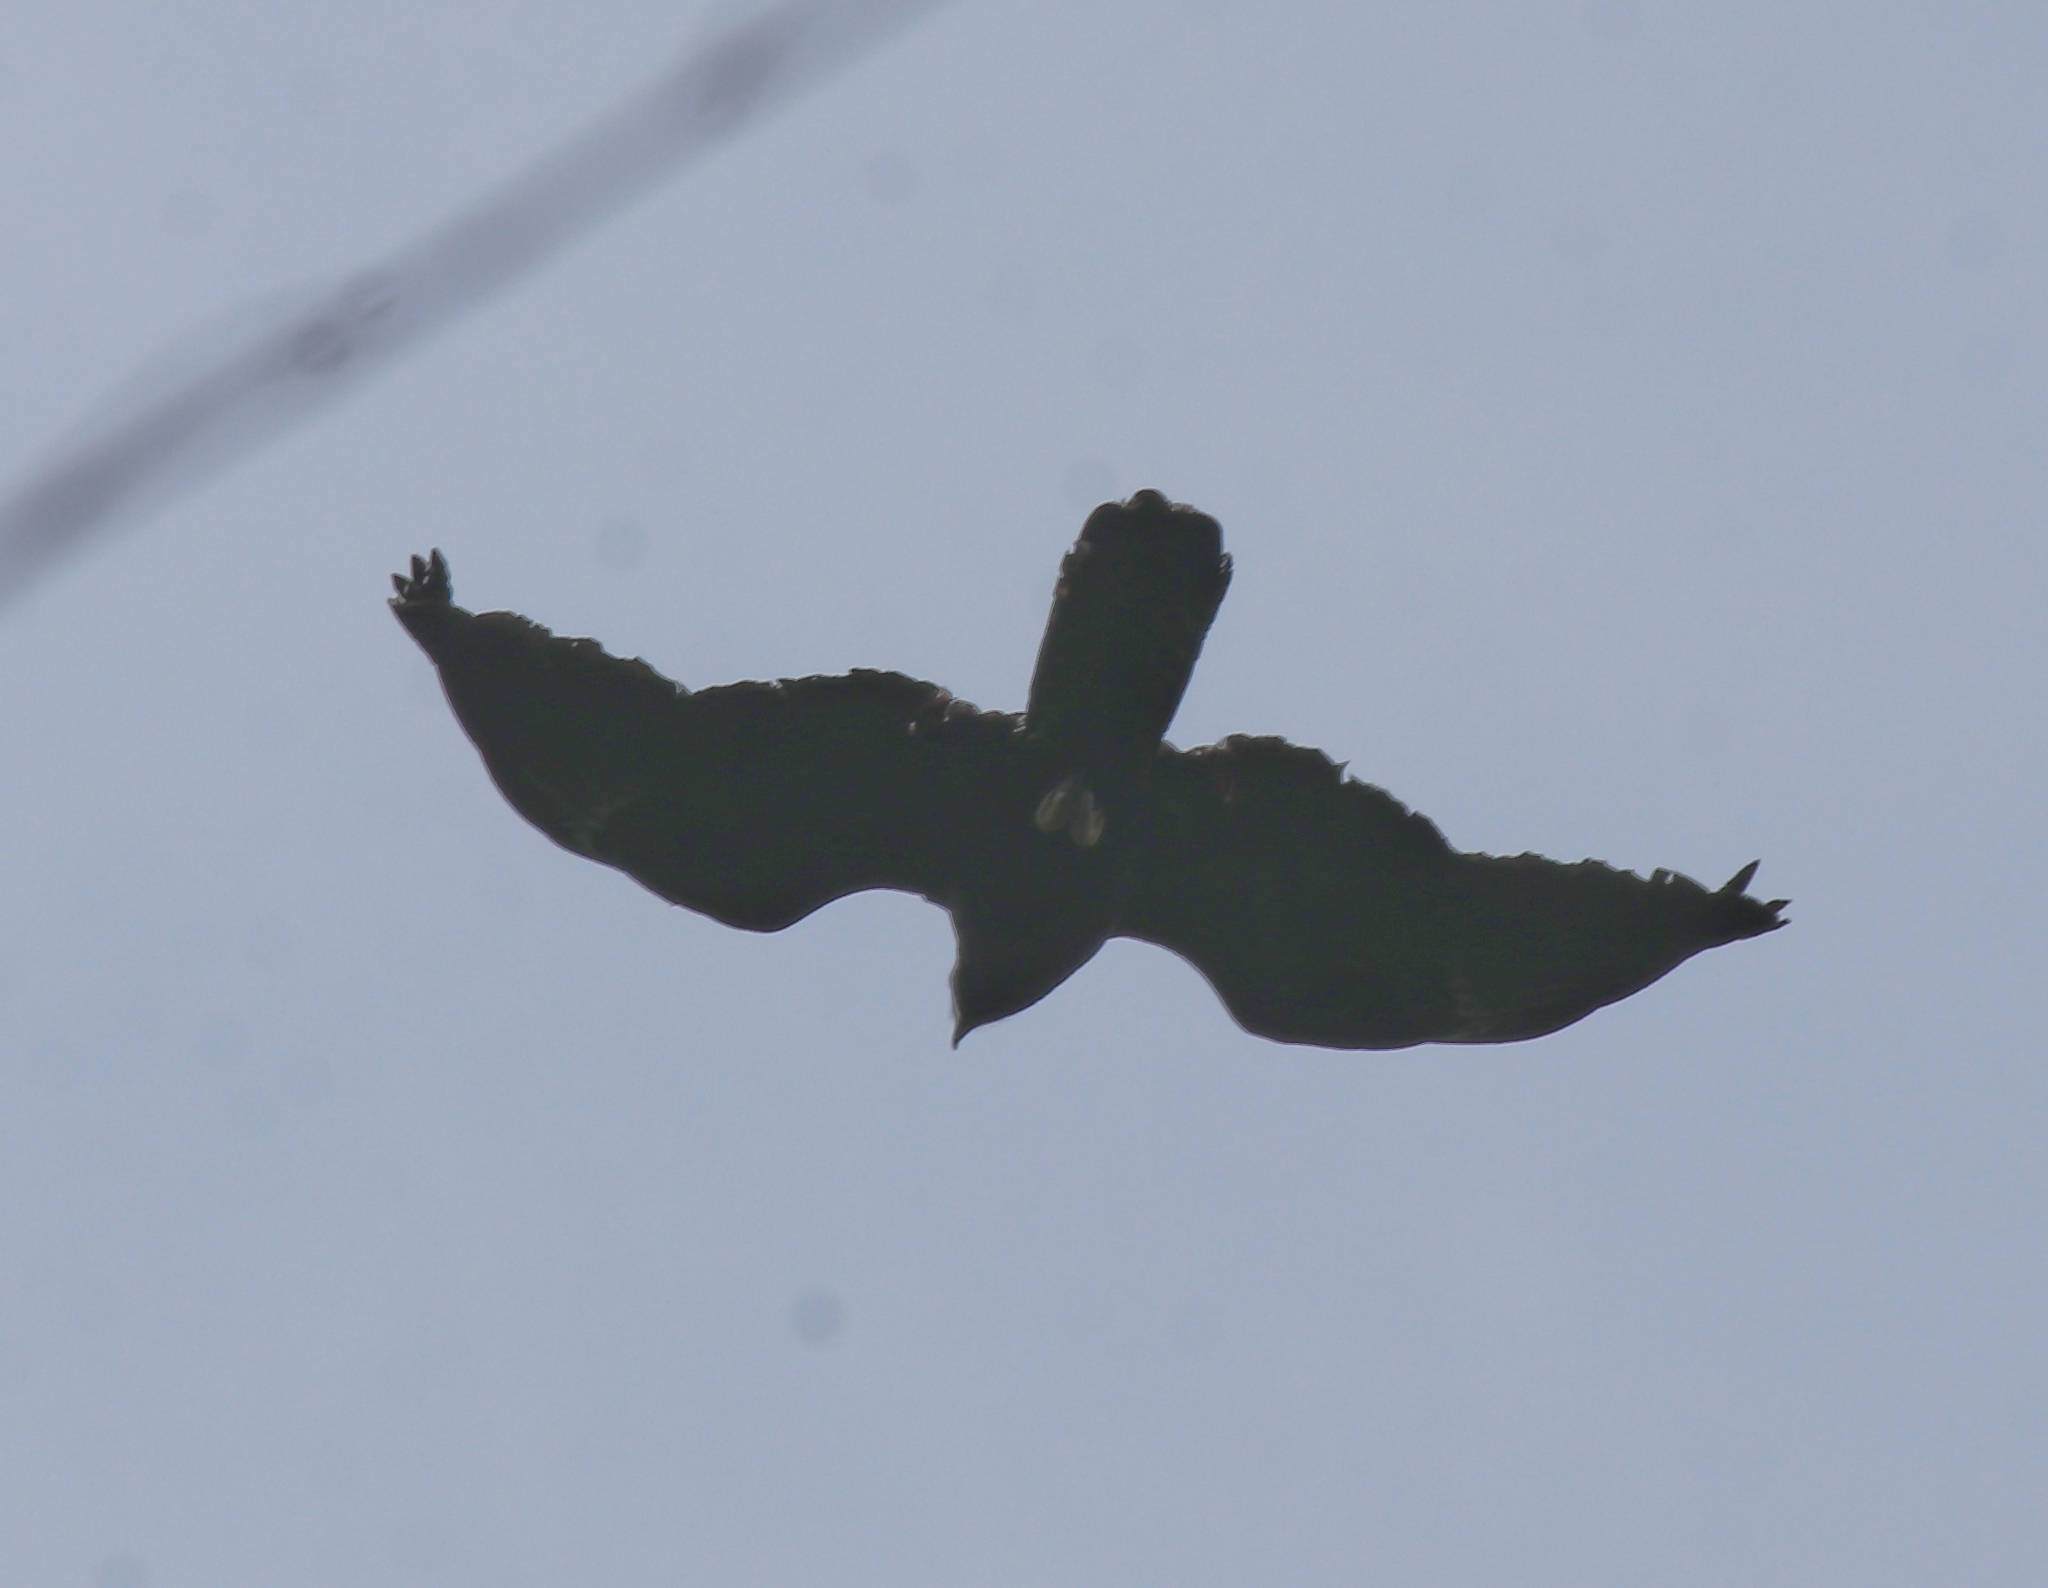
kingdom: Animalia
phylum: Chordata
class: Aves
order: Accipitriformes
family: Accipitridae
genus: Ictinaetus
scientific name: Ictinaetus malayensis
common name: Black eagle
